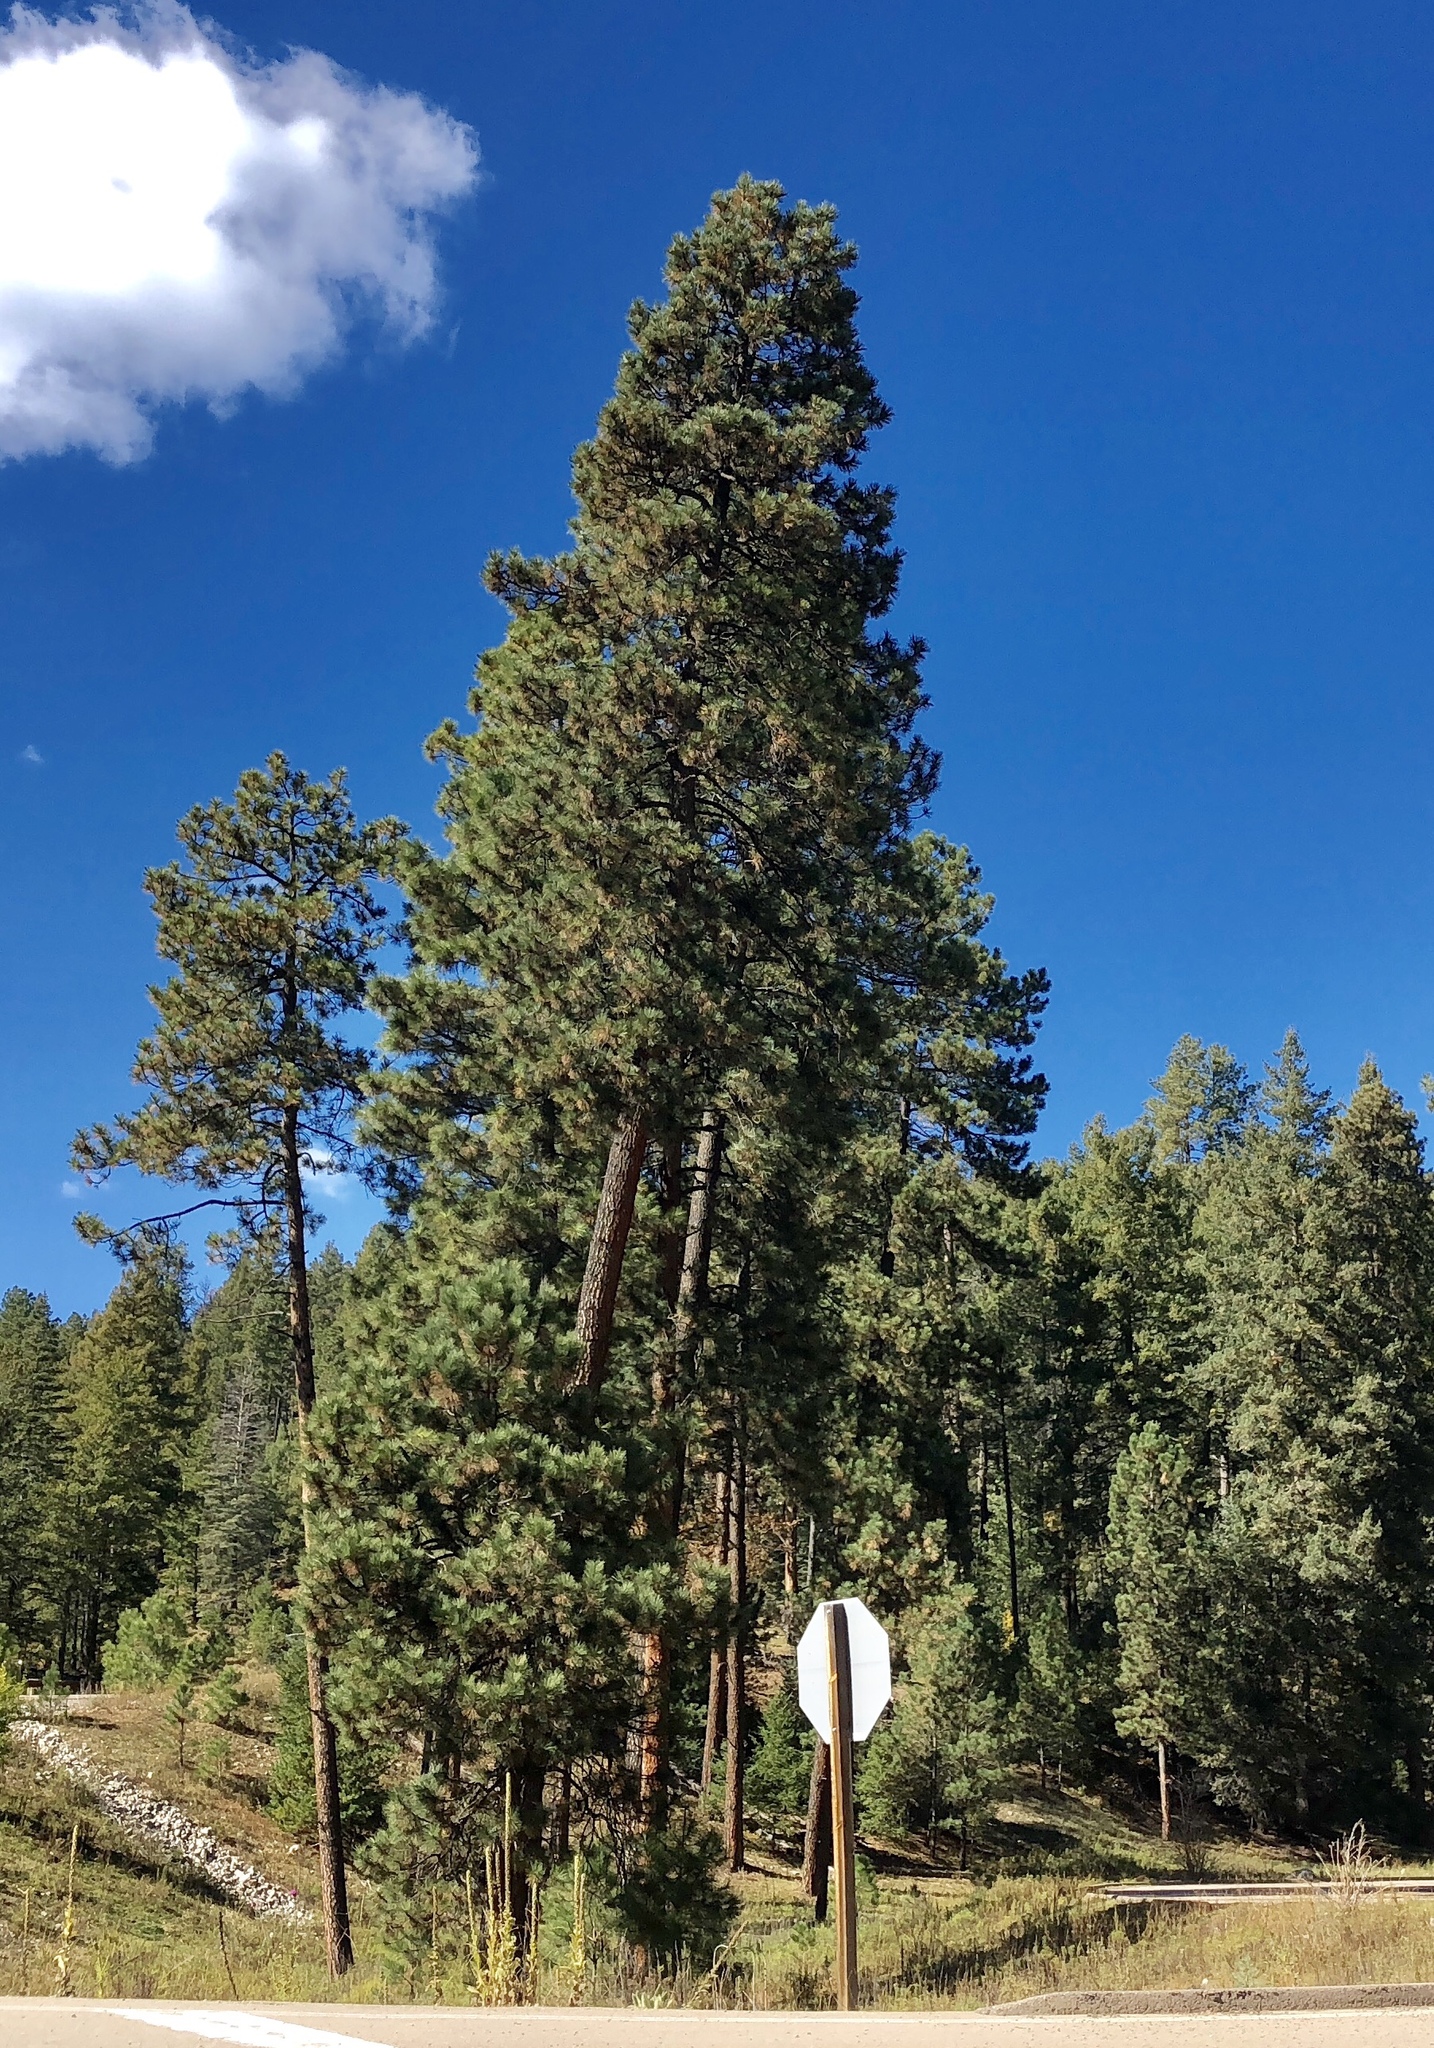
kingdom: Plantae
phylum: Tracheophyta
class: Pinopsida
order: Pinales
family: Pinaceae
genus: Pinus
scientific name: Pinus ponderosa
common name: Western yellow-pine
